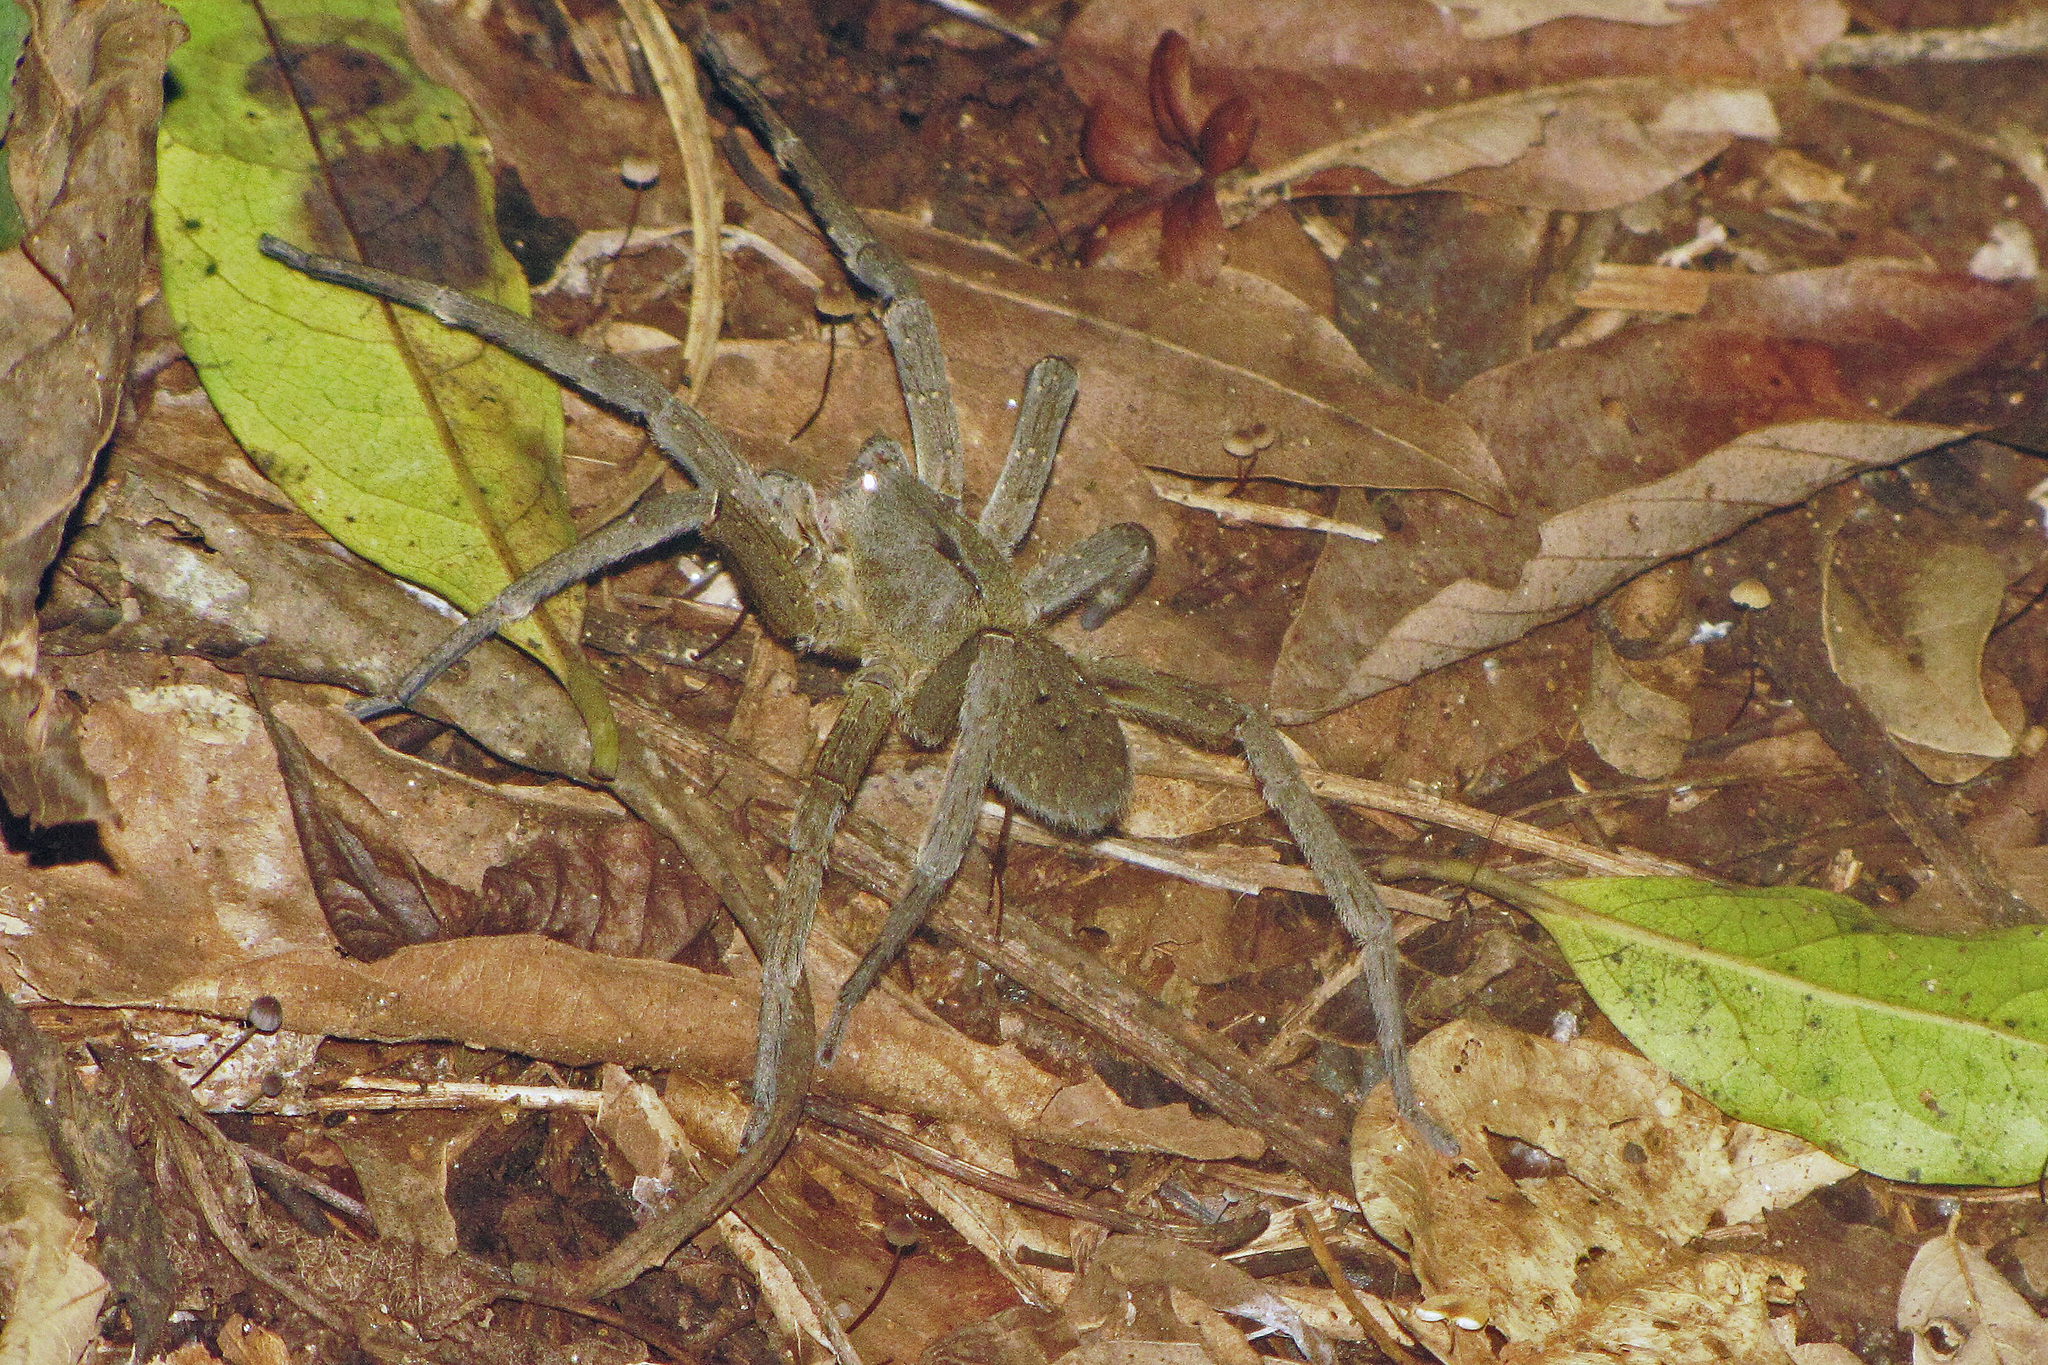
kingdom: Animalia
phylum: Arthropoda
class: Arachnida
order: Araneae
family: Ctenidae
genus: Phoneutria
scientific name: Phoneutria nigriventer
